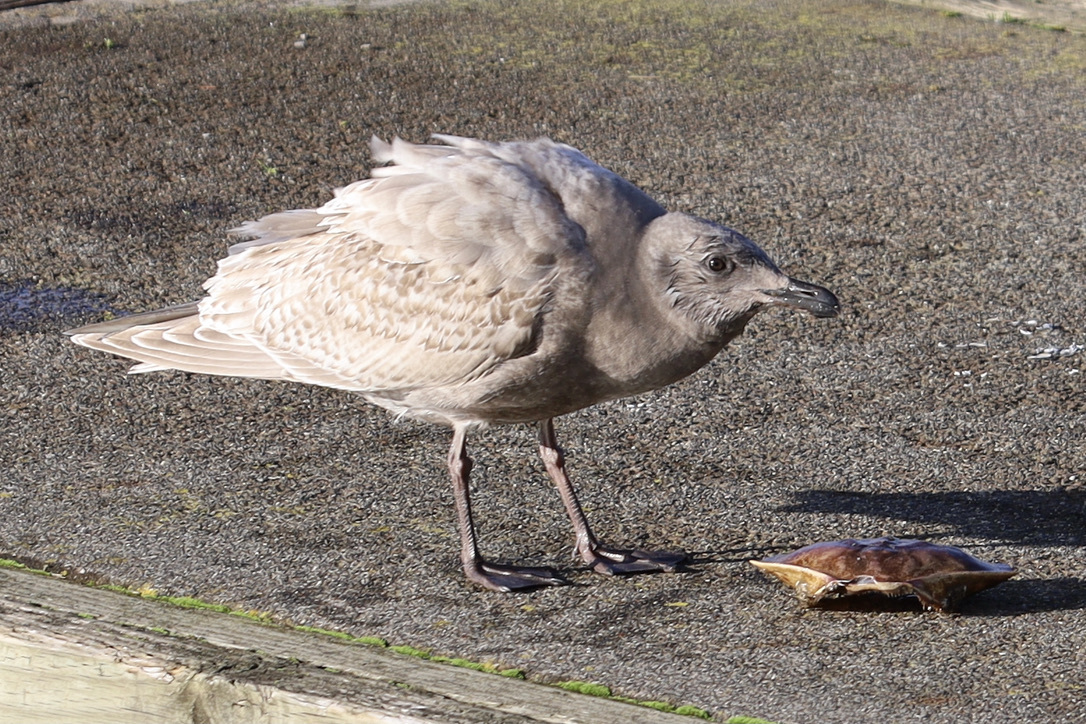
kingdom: Animalia
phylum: Chordata
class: Aves
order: Charadriiformes
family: Laridae
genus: Larus
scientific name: Larus
